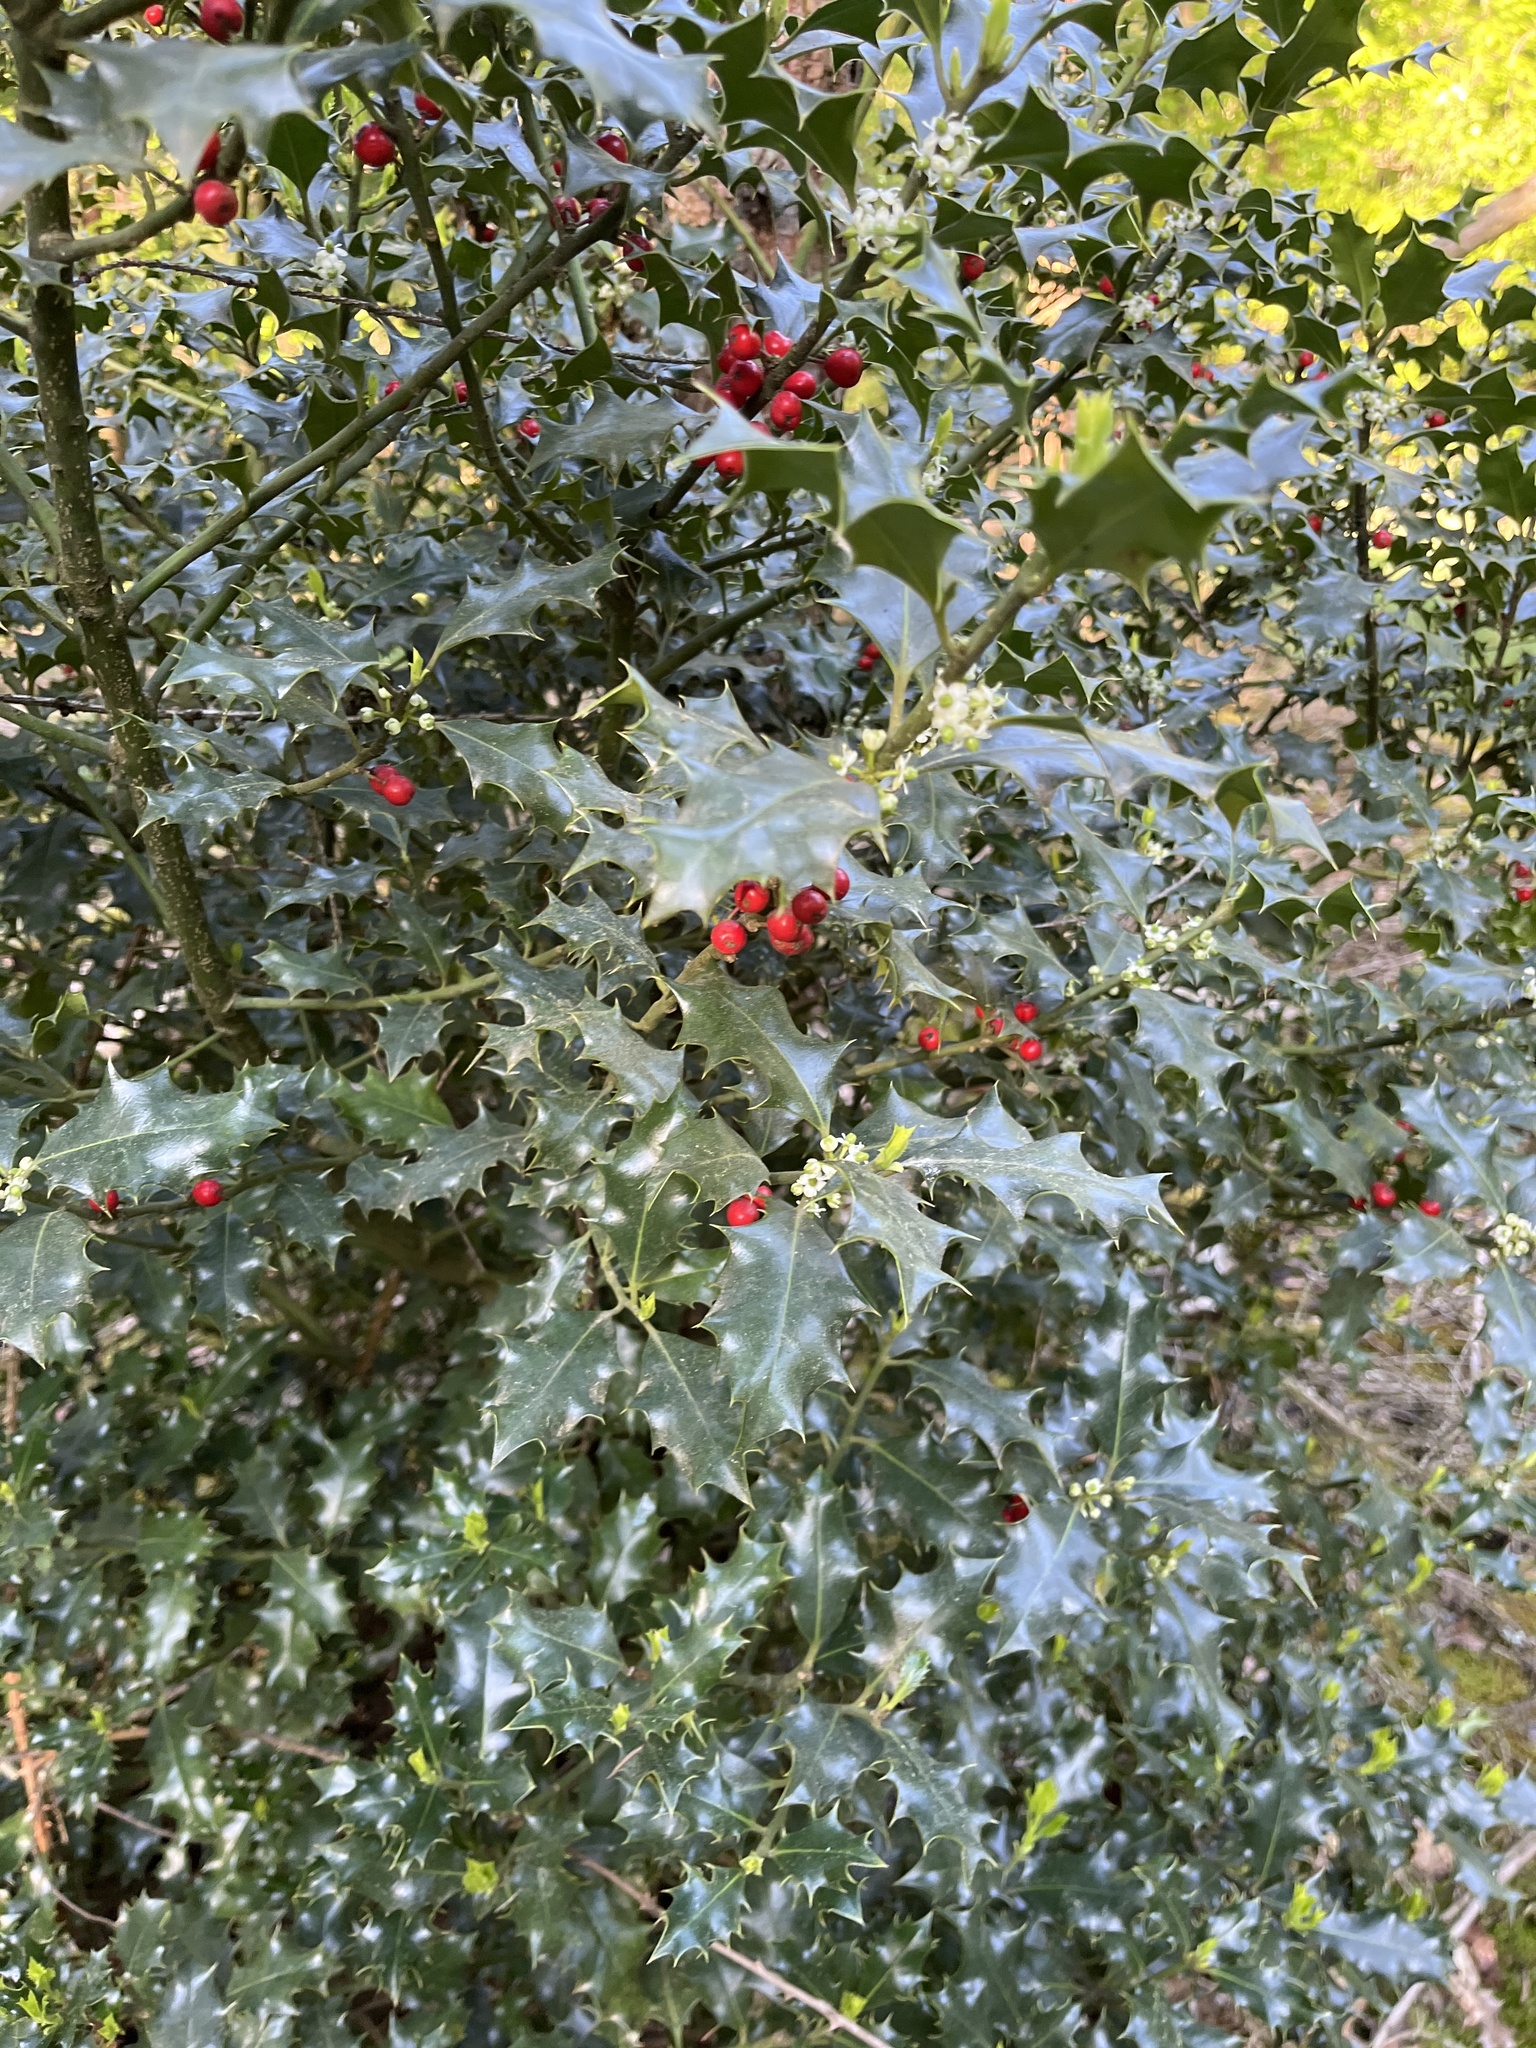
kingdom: Plantae
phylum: Tracheophyta
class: Magnoliopsida
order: Aquifoliales
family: Aquifoliaceae
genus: Ilex
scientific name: Ilex aquifolium
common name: English holly
